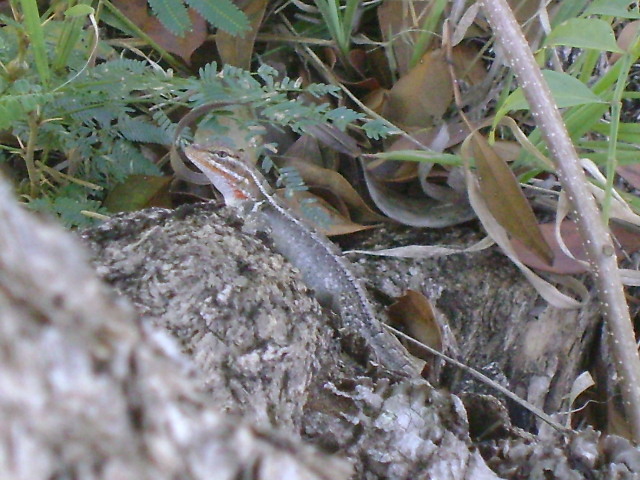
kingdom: Animalia
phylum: Chordata
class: Squamata
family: Phrynosomatidae
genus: Sceloporus
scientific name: Sceloporus variabilis
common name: Rosebelly lizard
